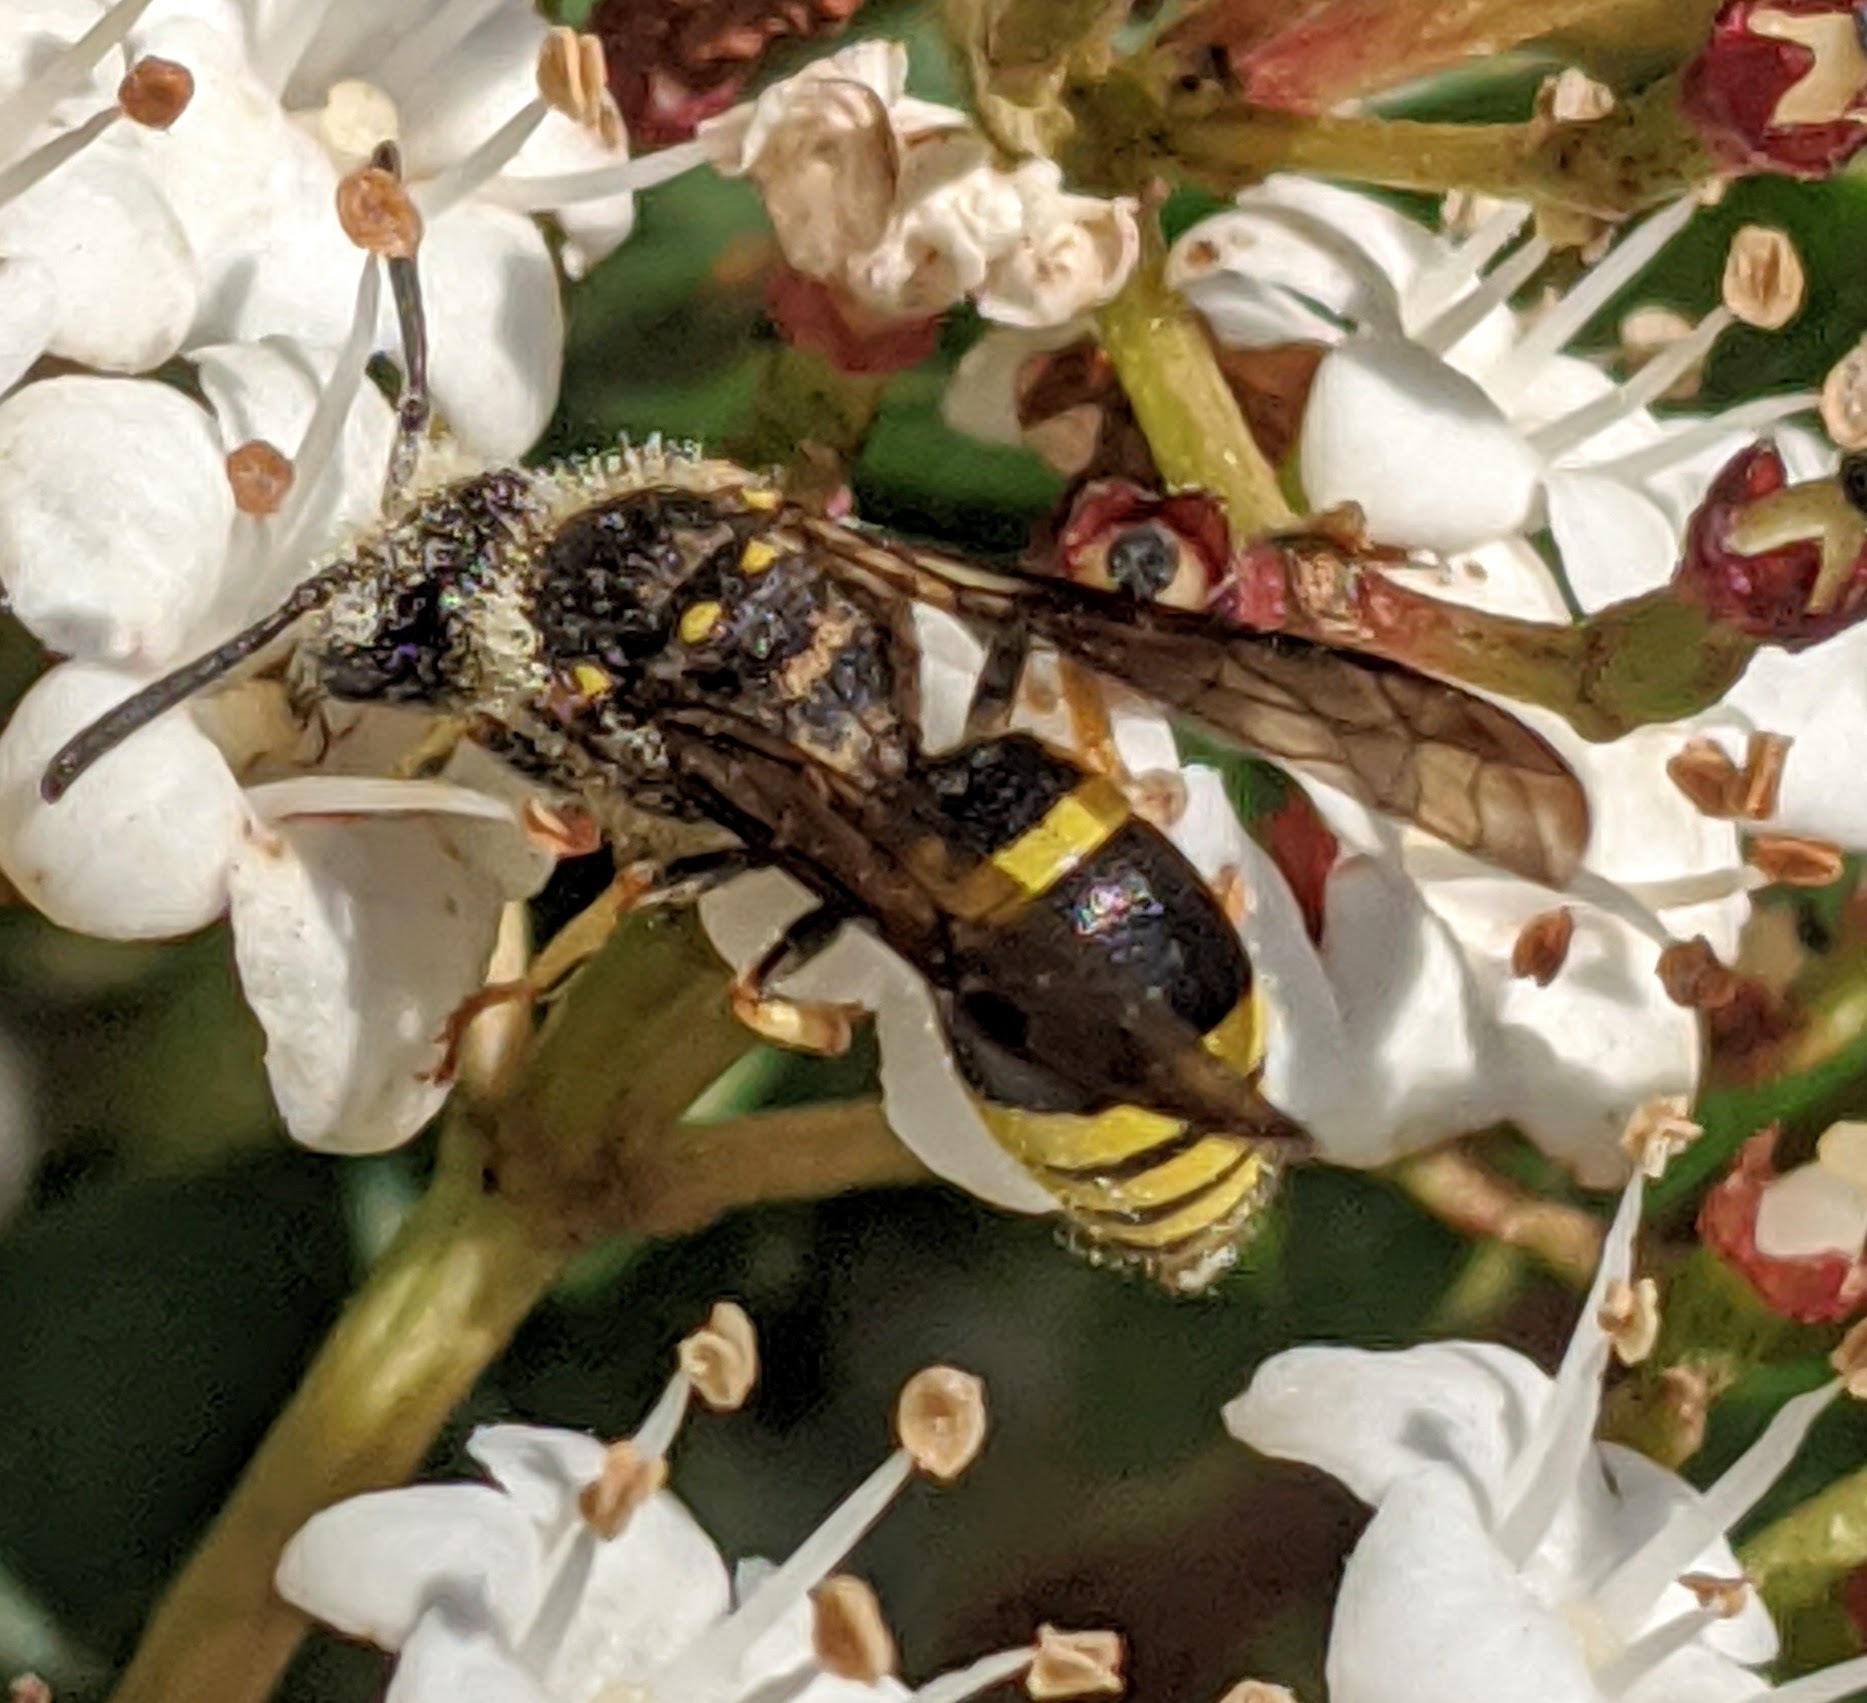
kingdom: Animalia
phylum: Arthropoda
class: Insecta
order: Hymenoptera
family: Vespidae
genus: Ancistrocerus
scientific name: Ancistrocerus nigricornis
